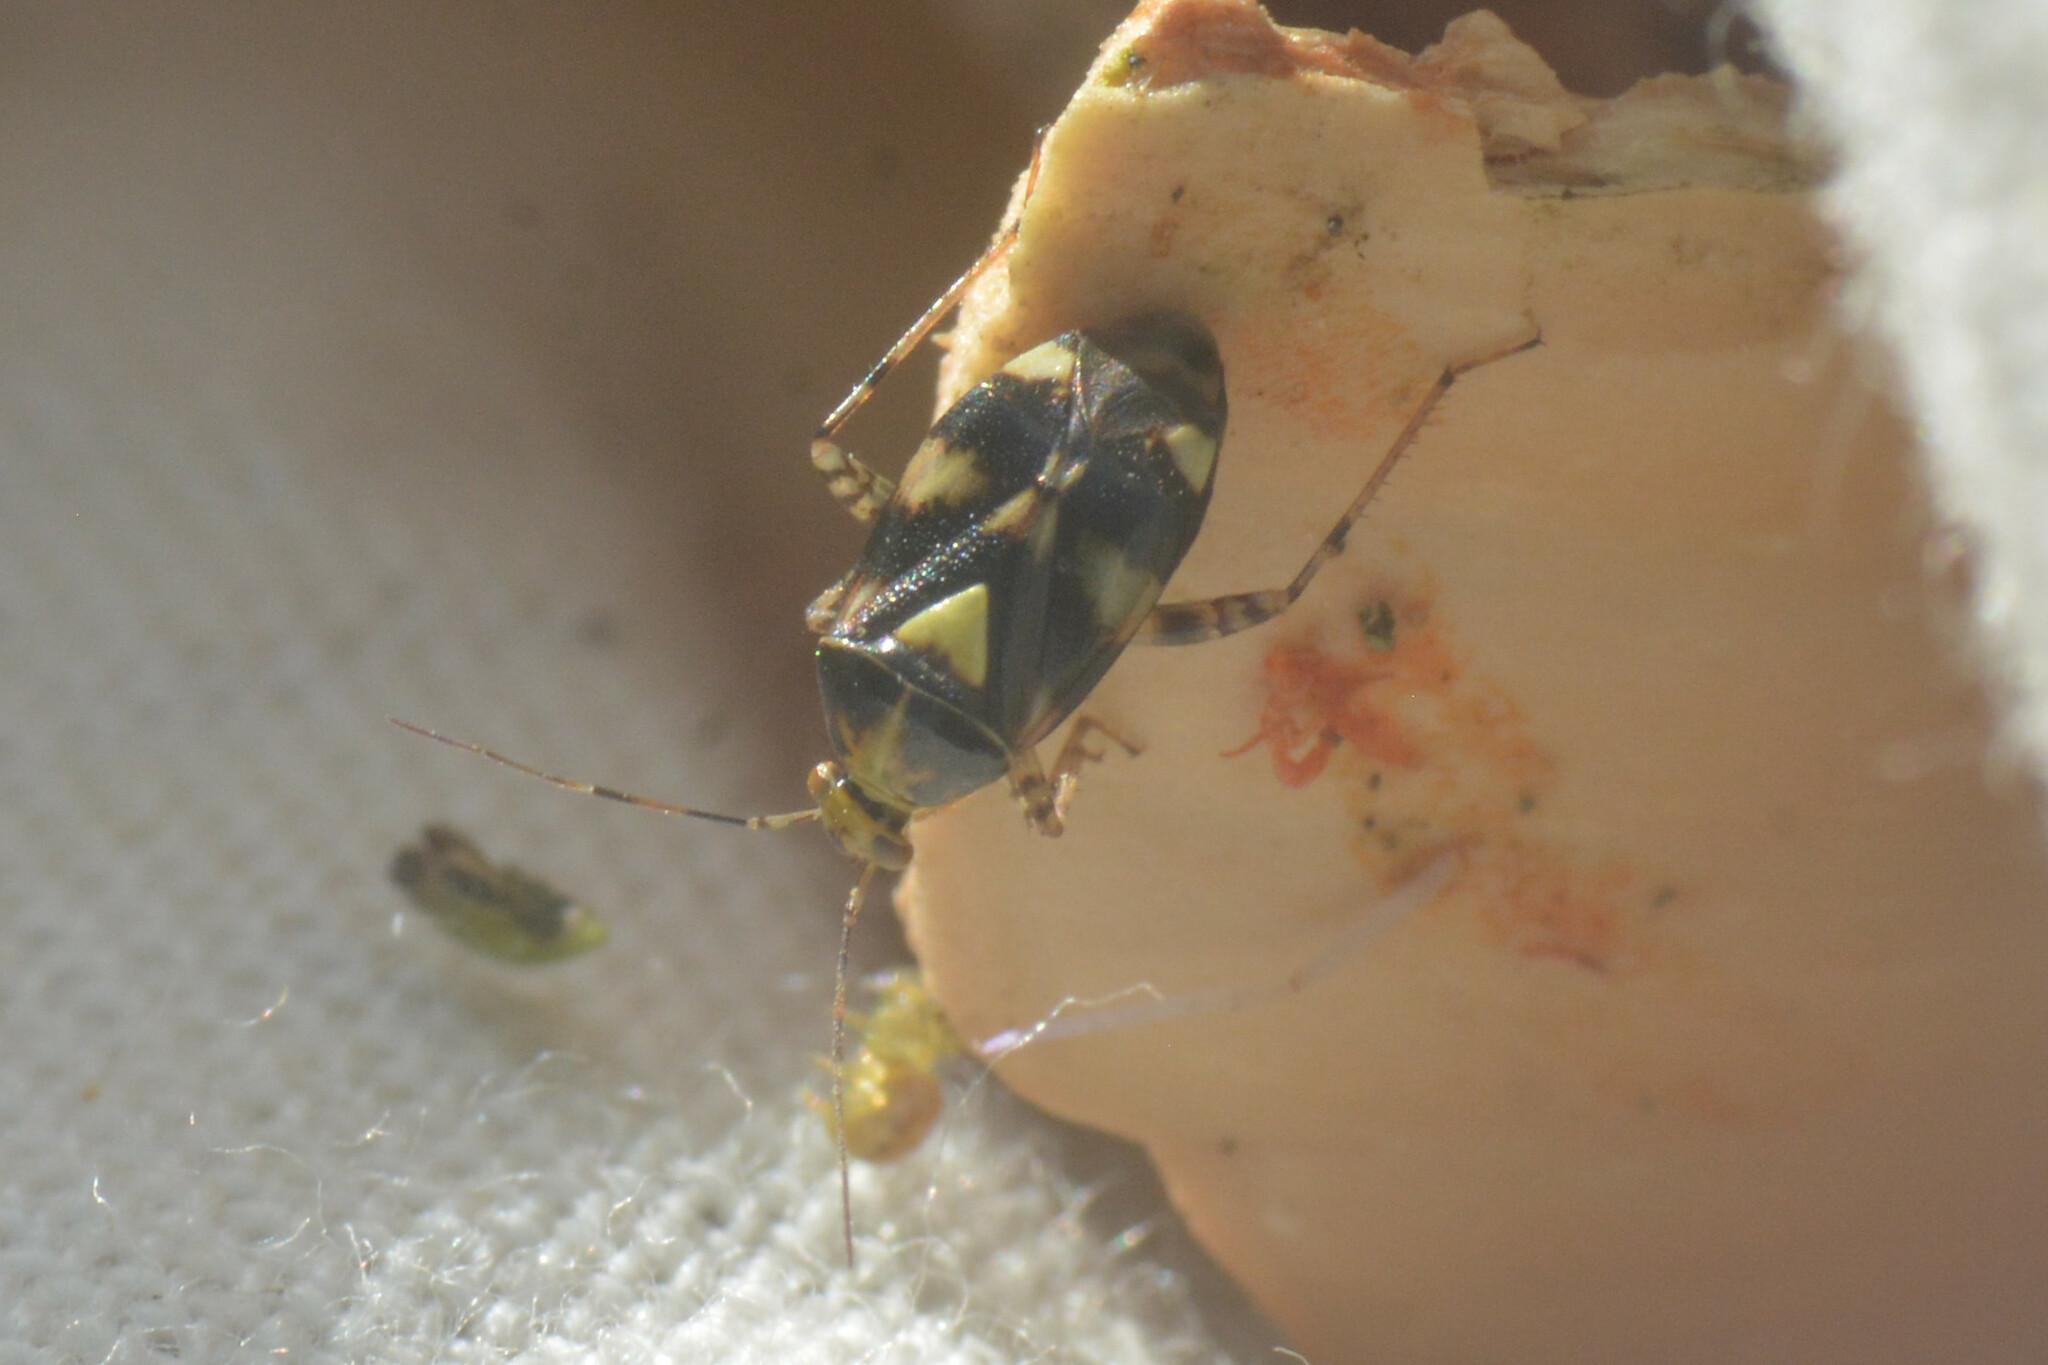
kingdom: Animalia
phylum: Arthropoda
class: Insecta
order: Hemiptera
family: Miridae
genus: Liocoris
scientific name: Liocoris tripustulatus
